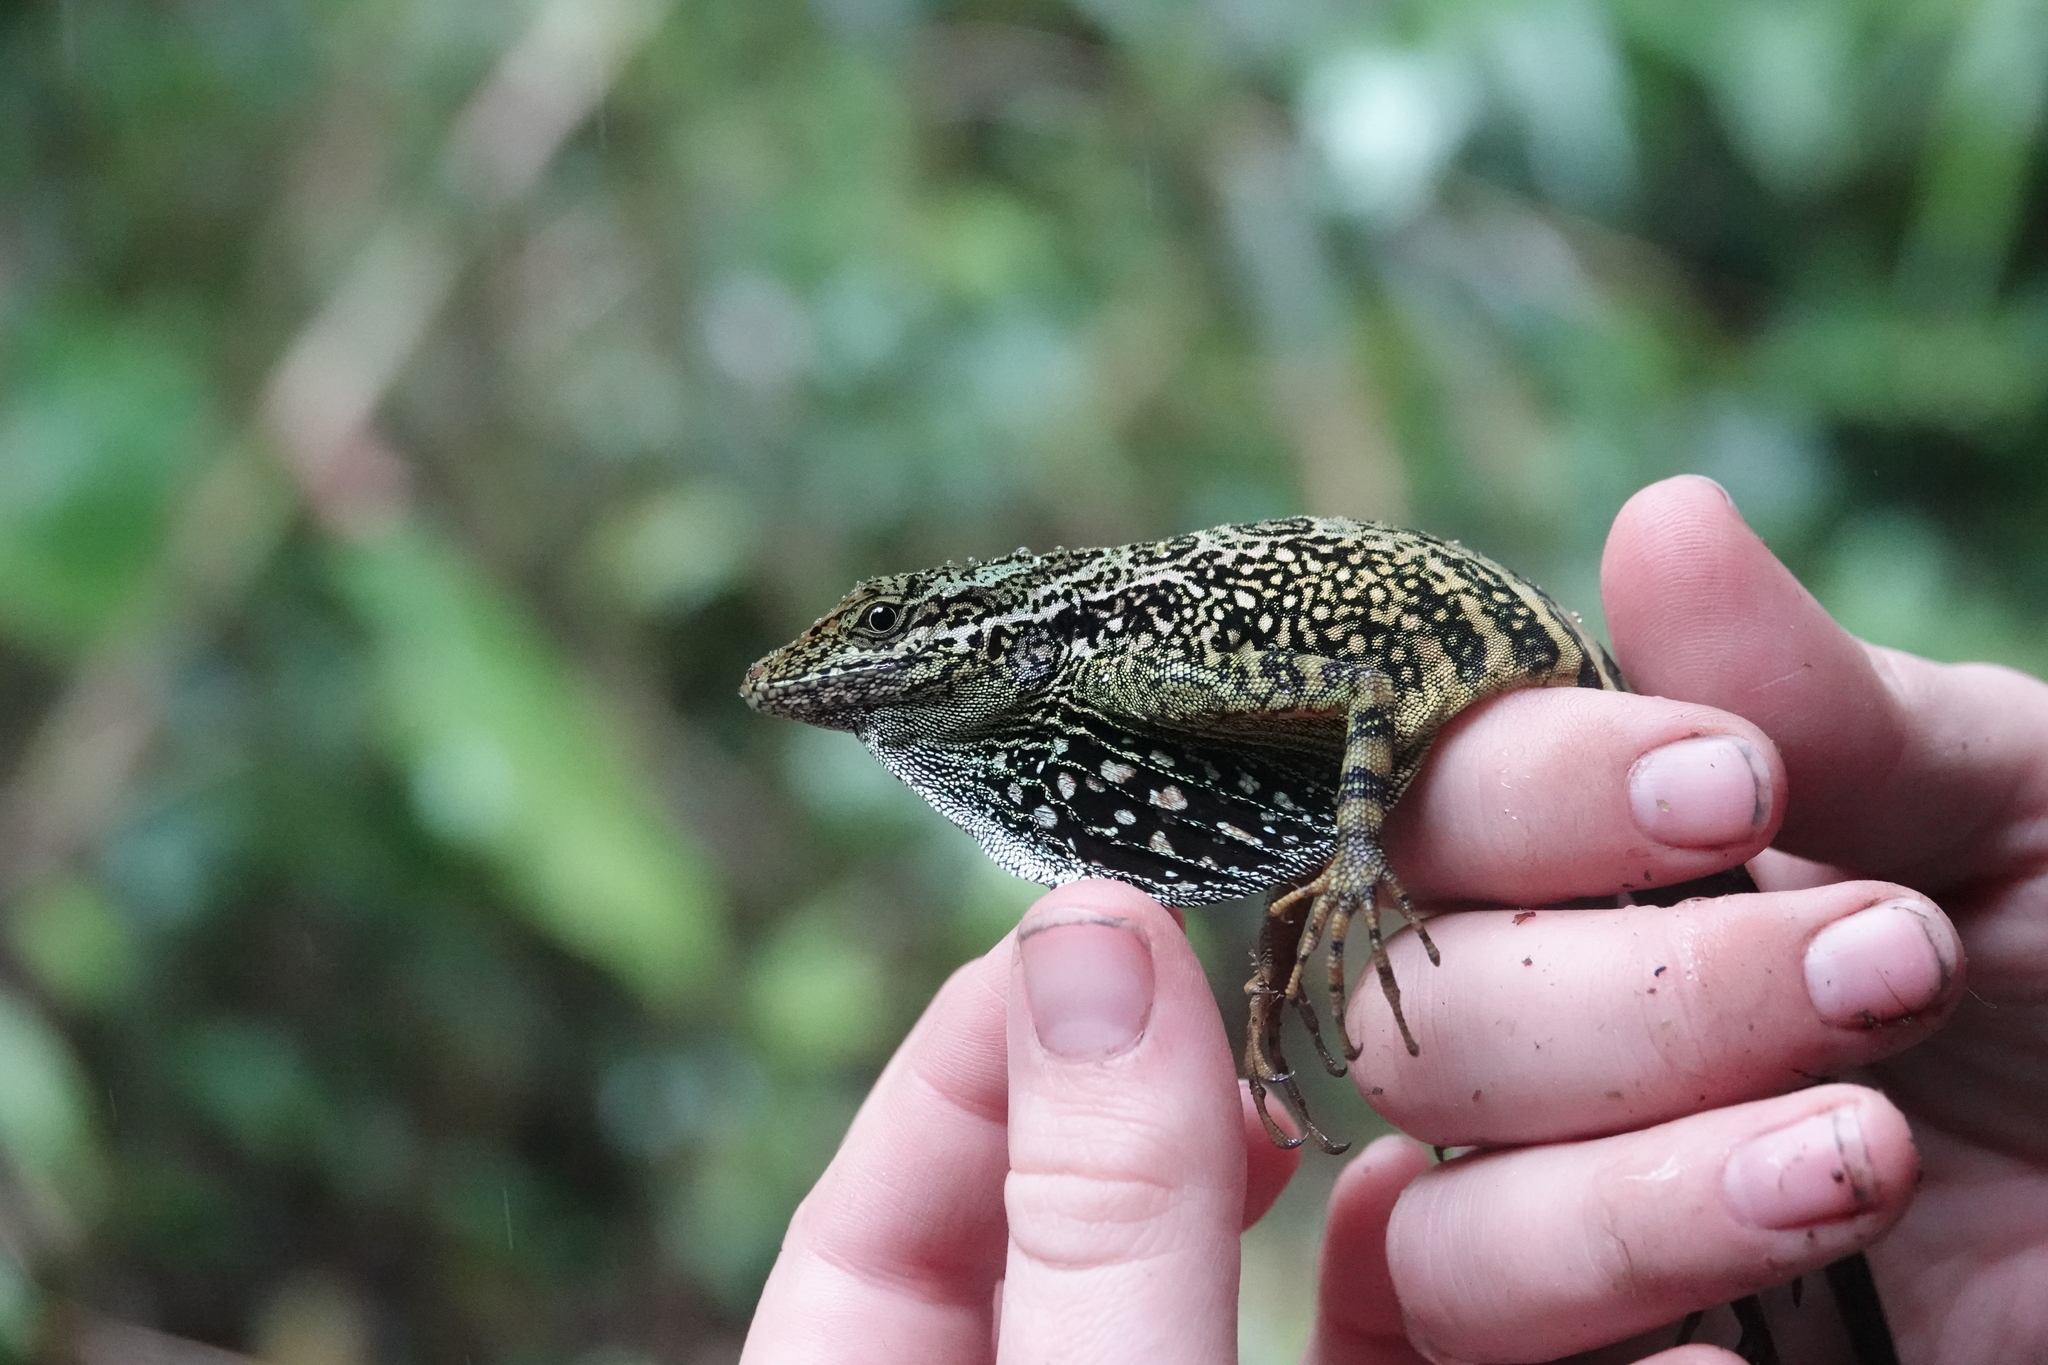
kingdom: Animalia
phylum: Chordata
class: Squamata
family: Dactyloidae
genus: Anolis
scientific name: Anolis dracula
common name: Dracula anole
